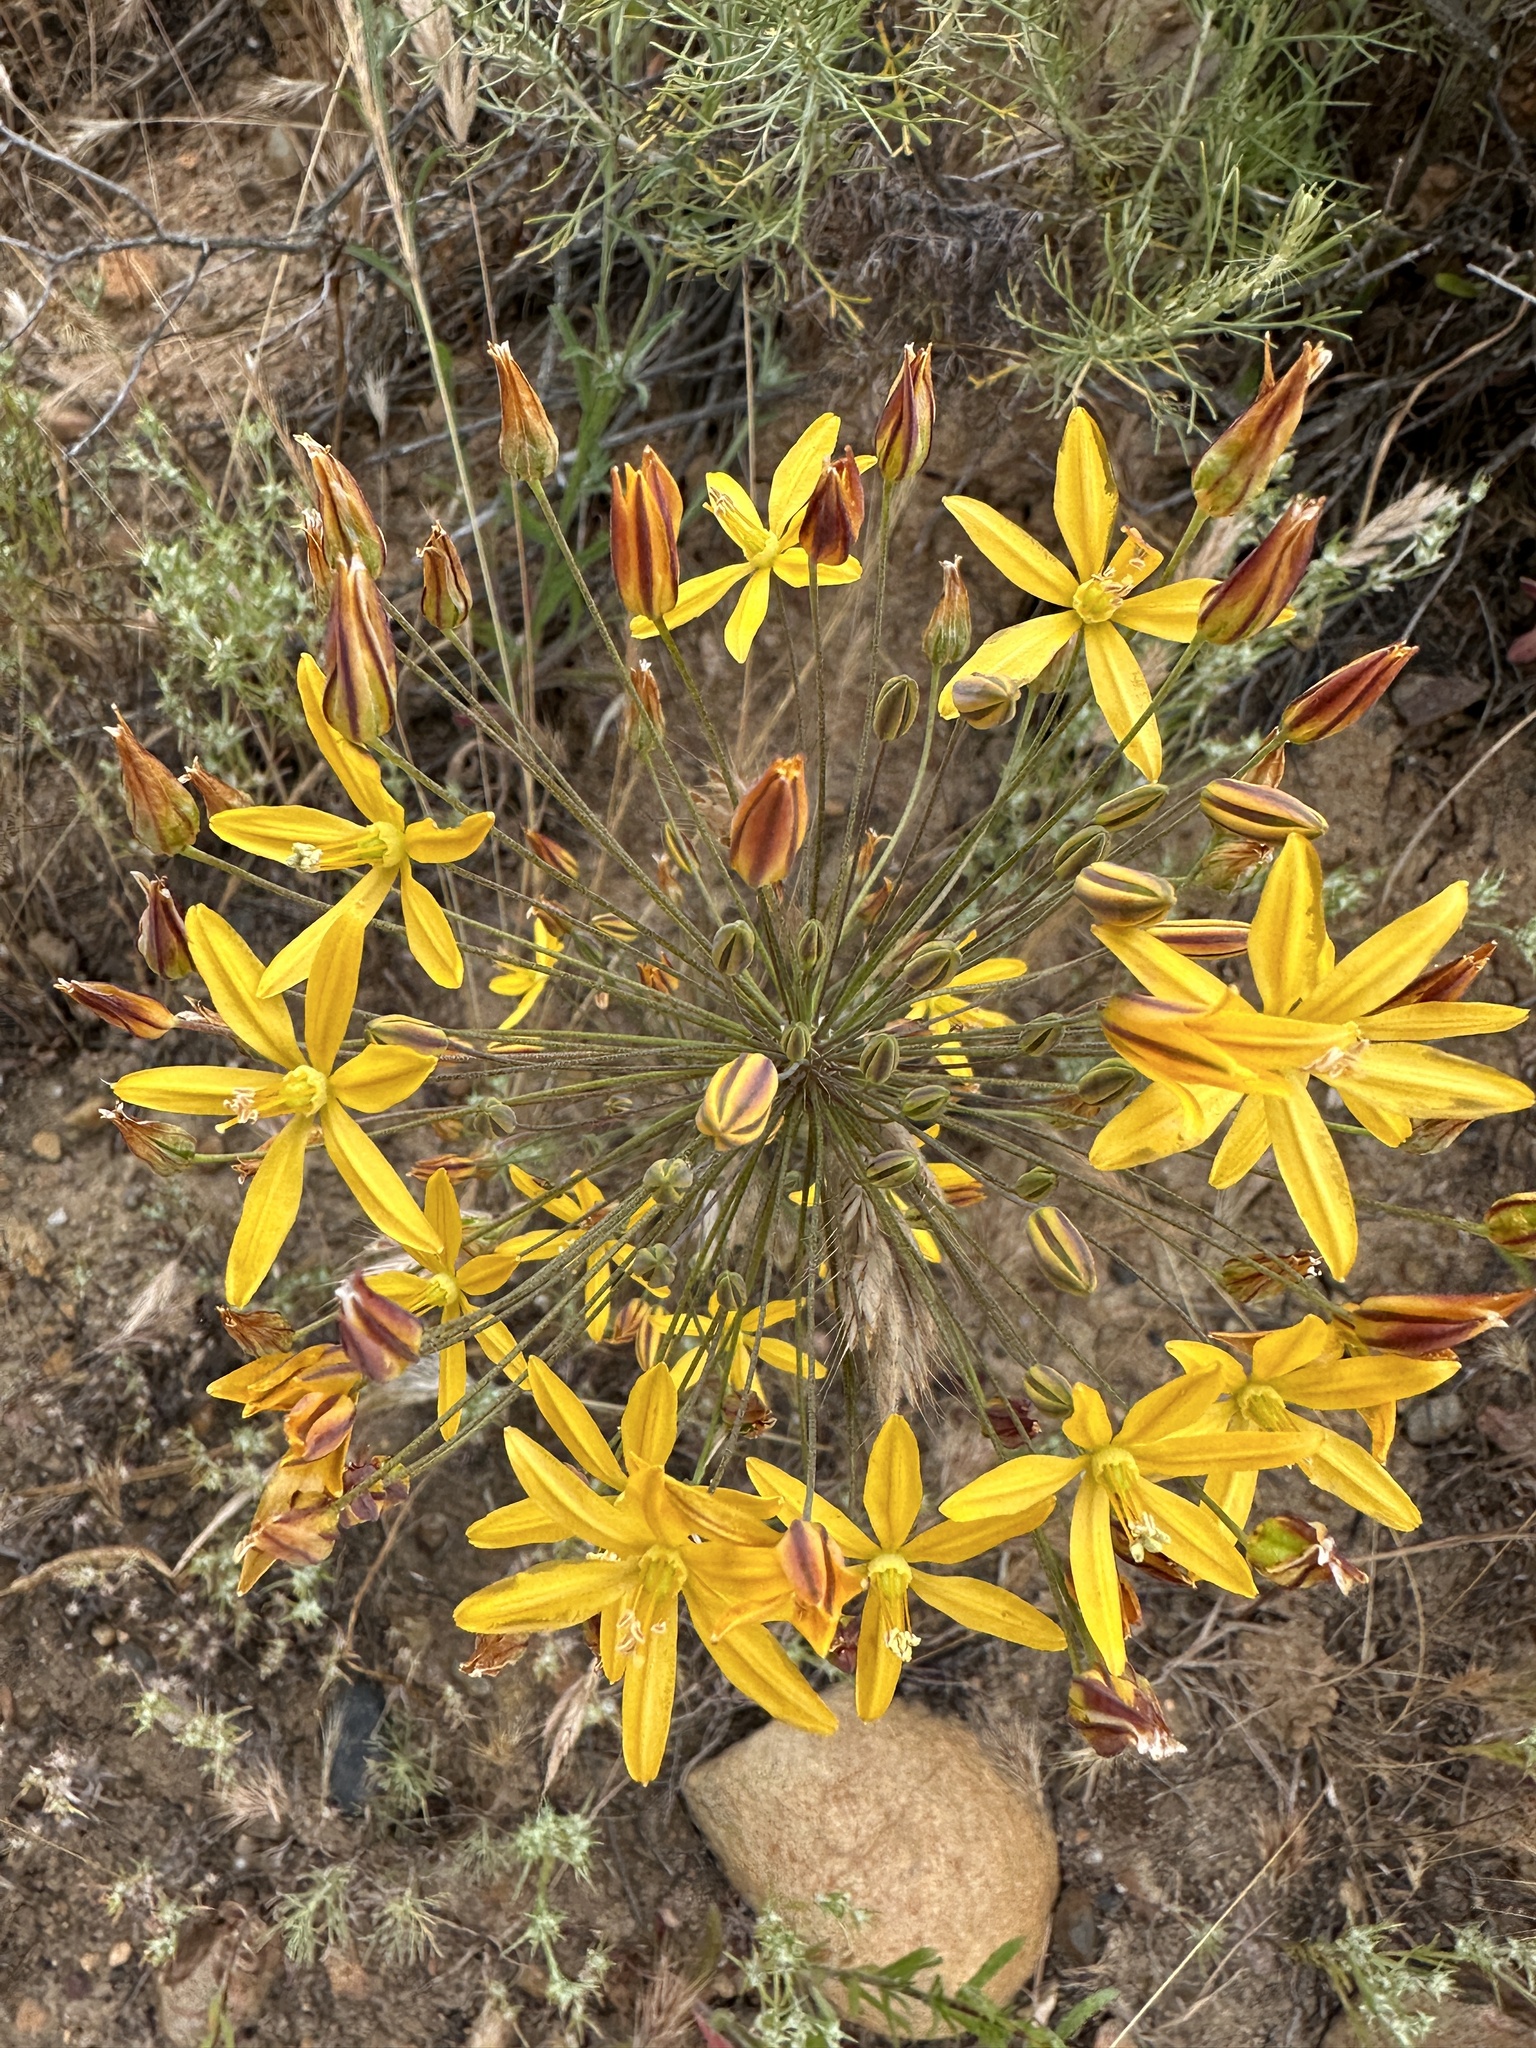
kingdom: Plantae
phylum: Tracheophyta
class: Liliopsida
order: Asparagales
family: Asparagaceae
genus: Bloomeria
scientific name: Bloomeria crocea
